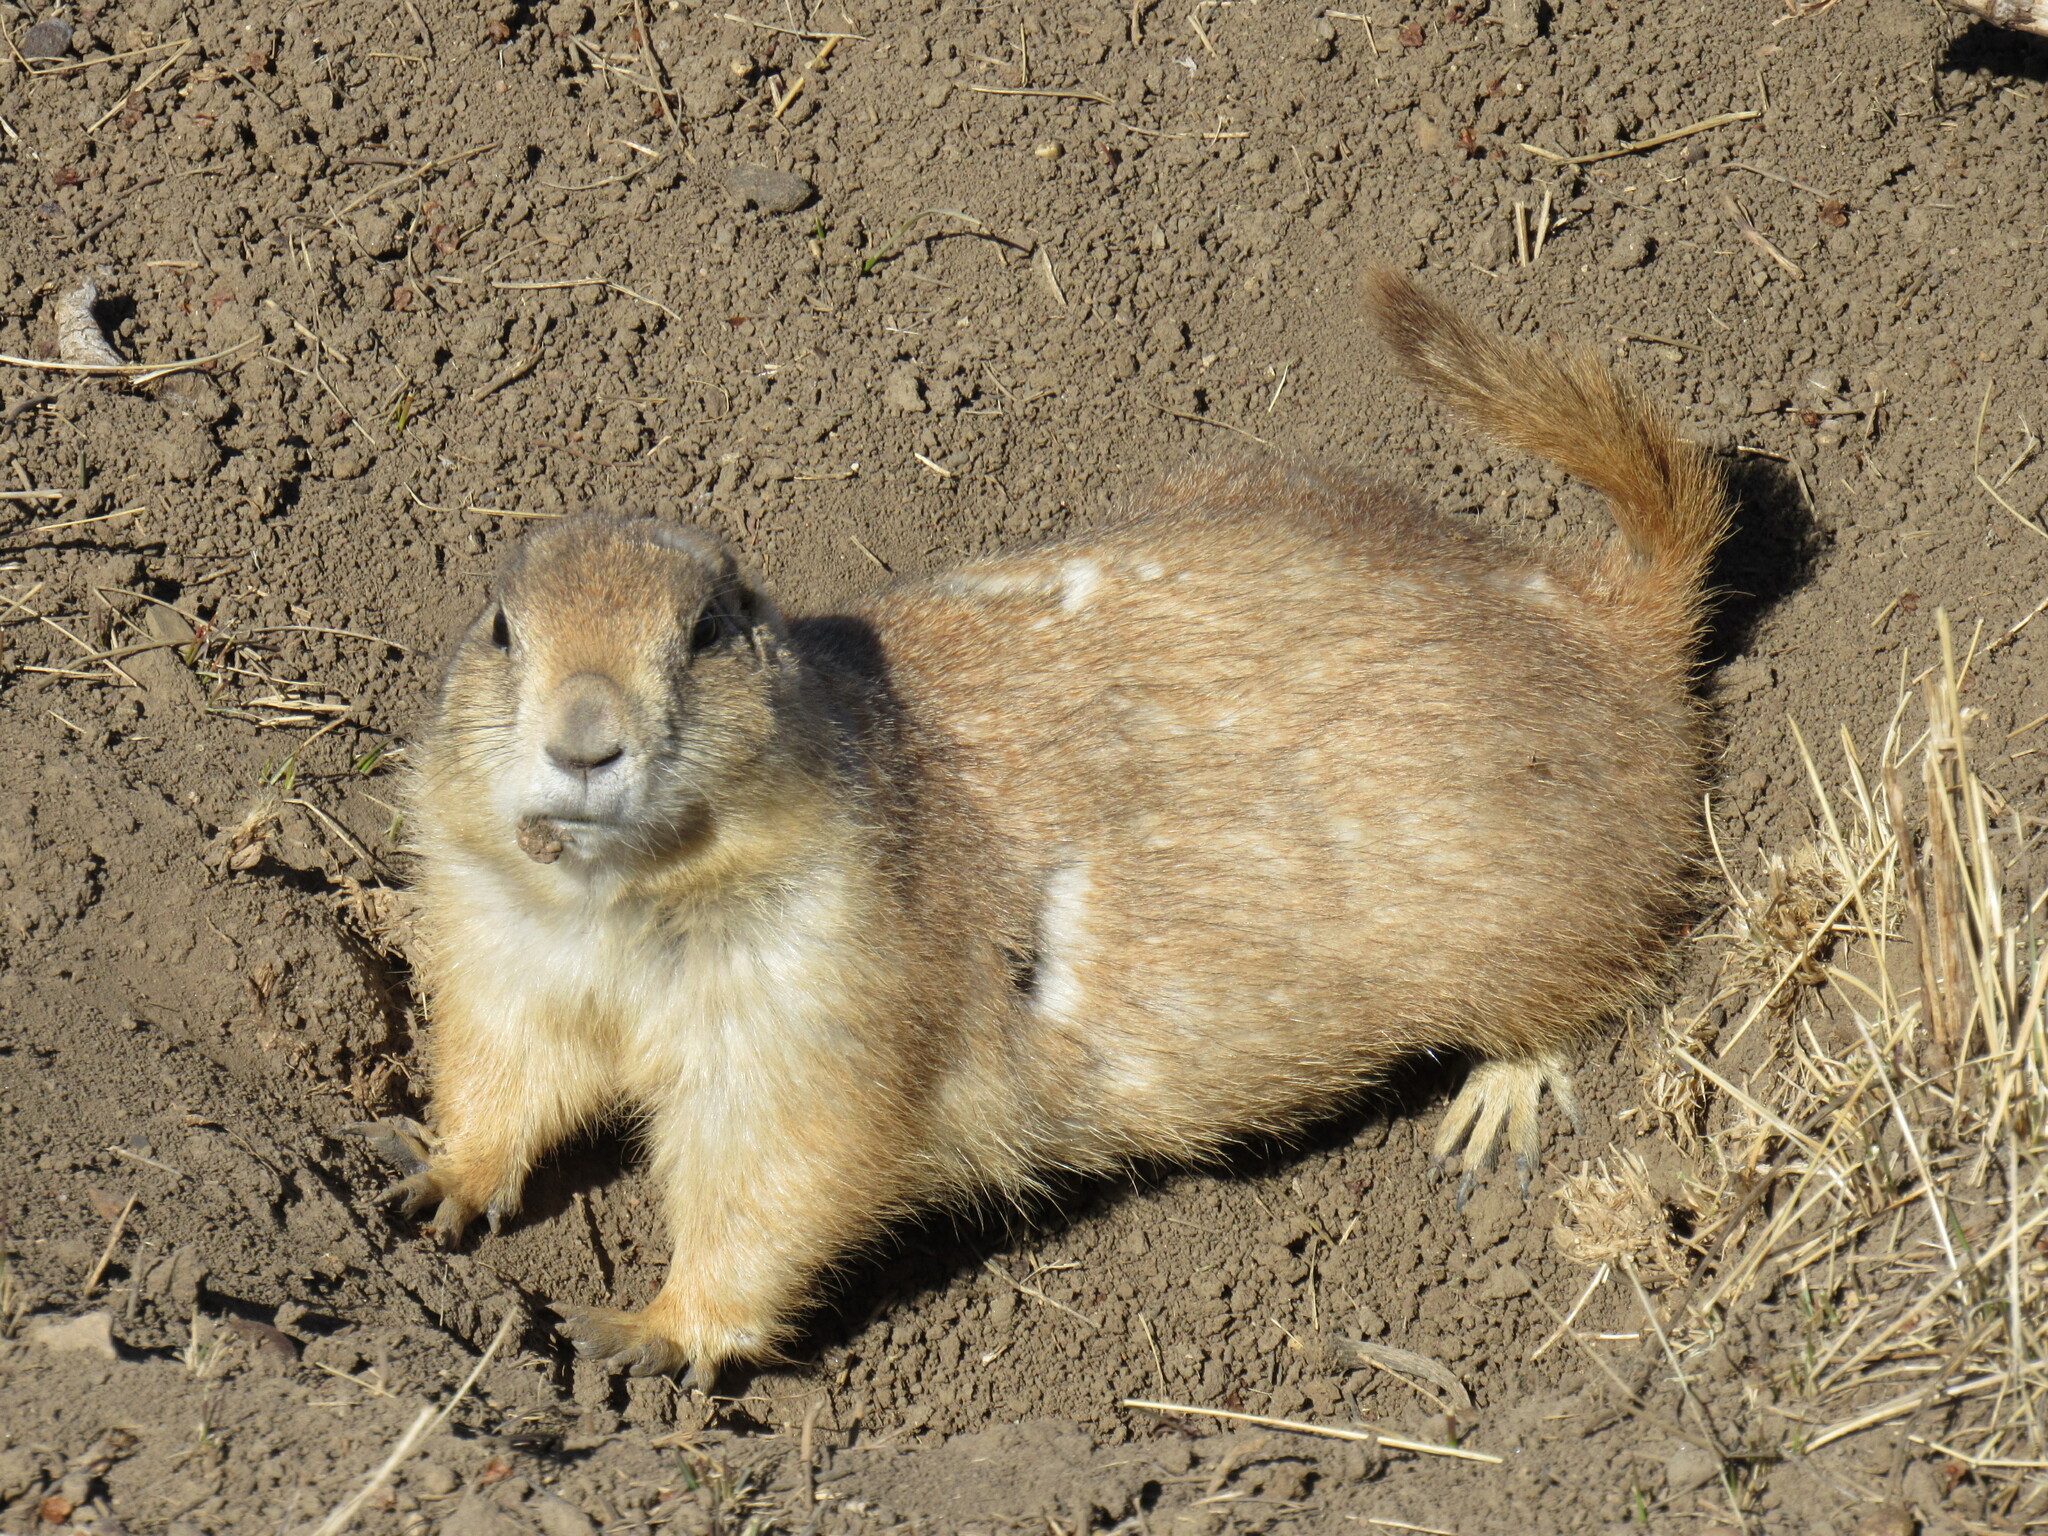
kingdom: Animalia
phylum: Chordata
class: Mammalia
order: Rodentia
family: Sciuridae
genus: Cynomys
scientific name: Cynomys ludovicianus
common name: Black-tailed prairie dog
